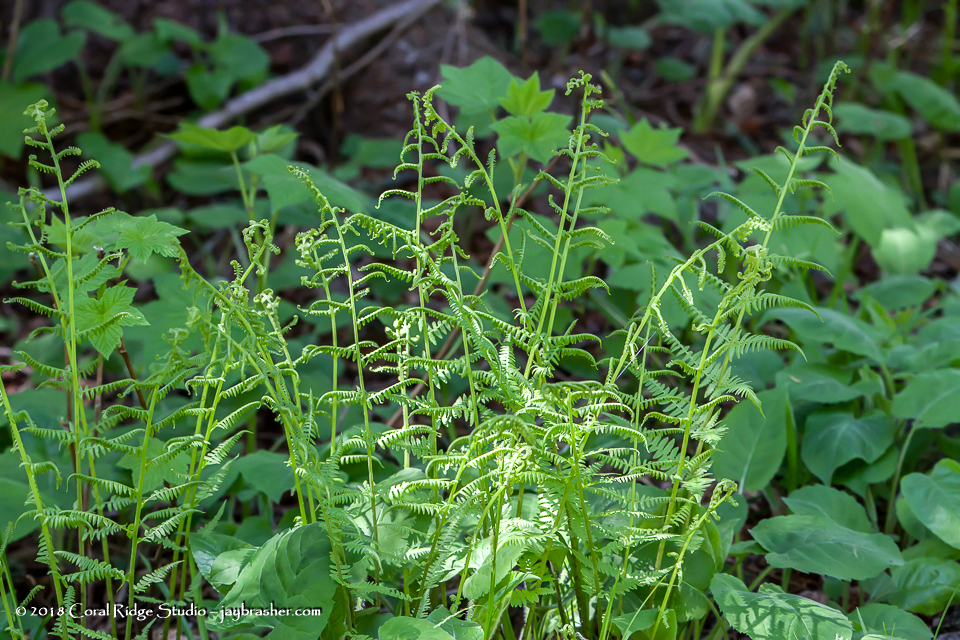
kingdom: Plantae
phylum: Tracheophyta
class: Polypodiopsida
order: Polypodiales
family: Athyriaceae
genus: Athyrium
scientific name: Athyrium angustum
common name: Northern lady fern
